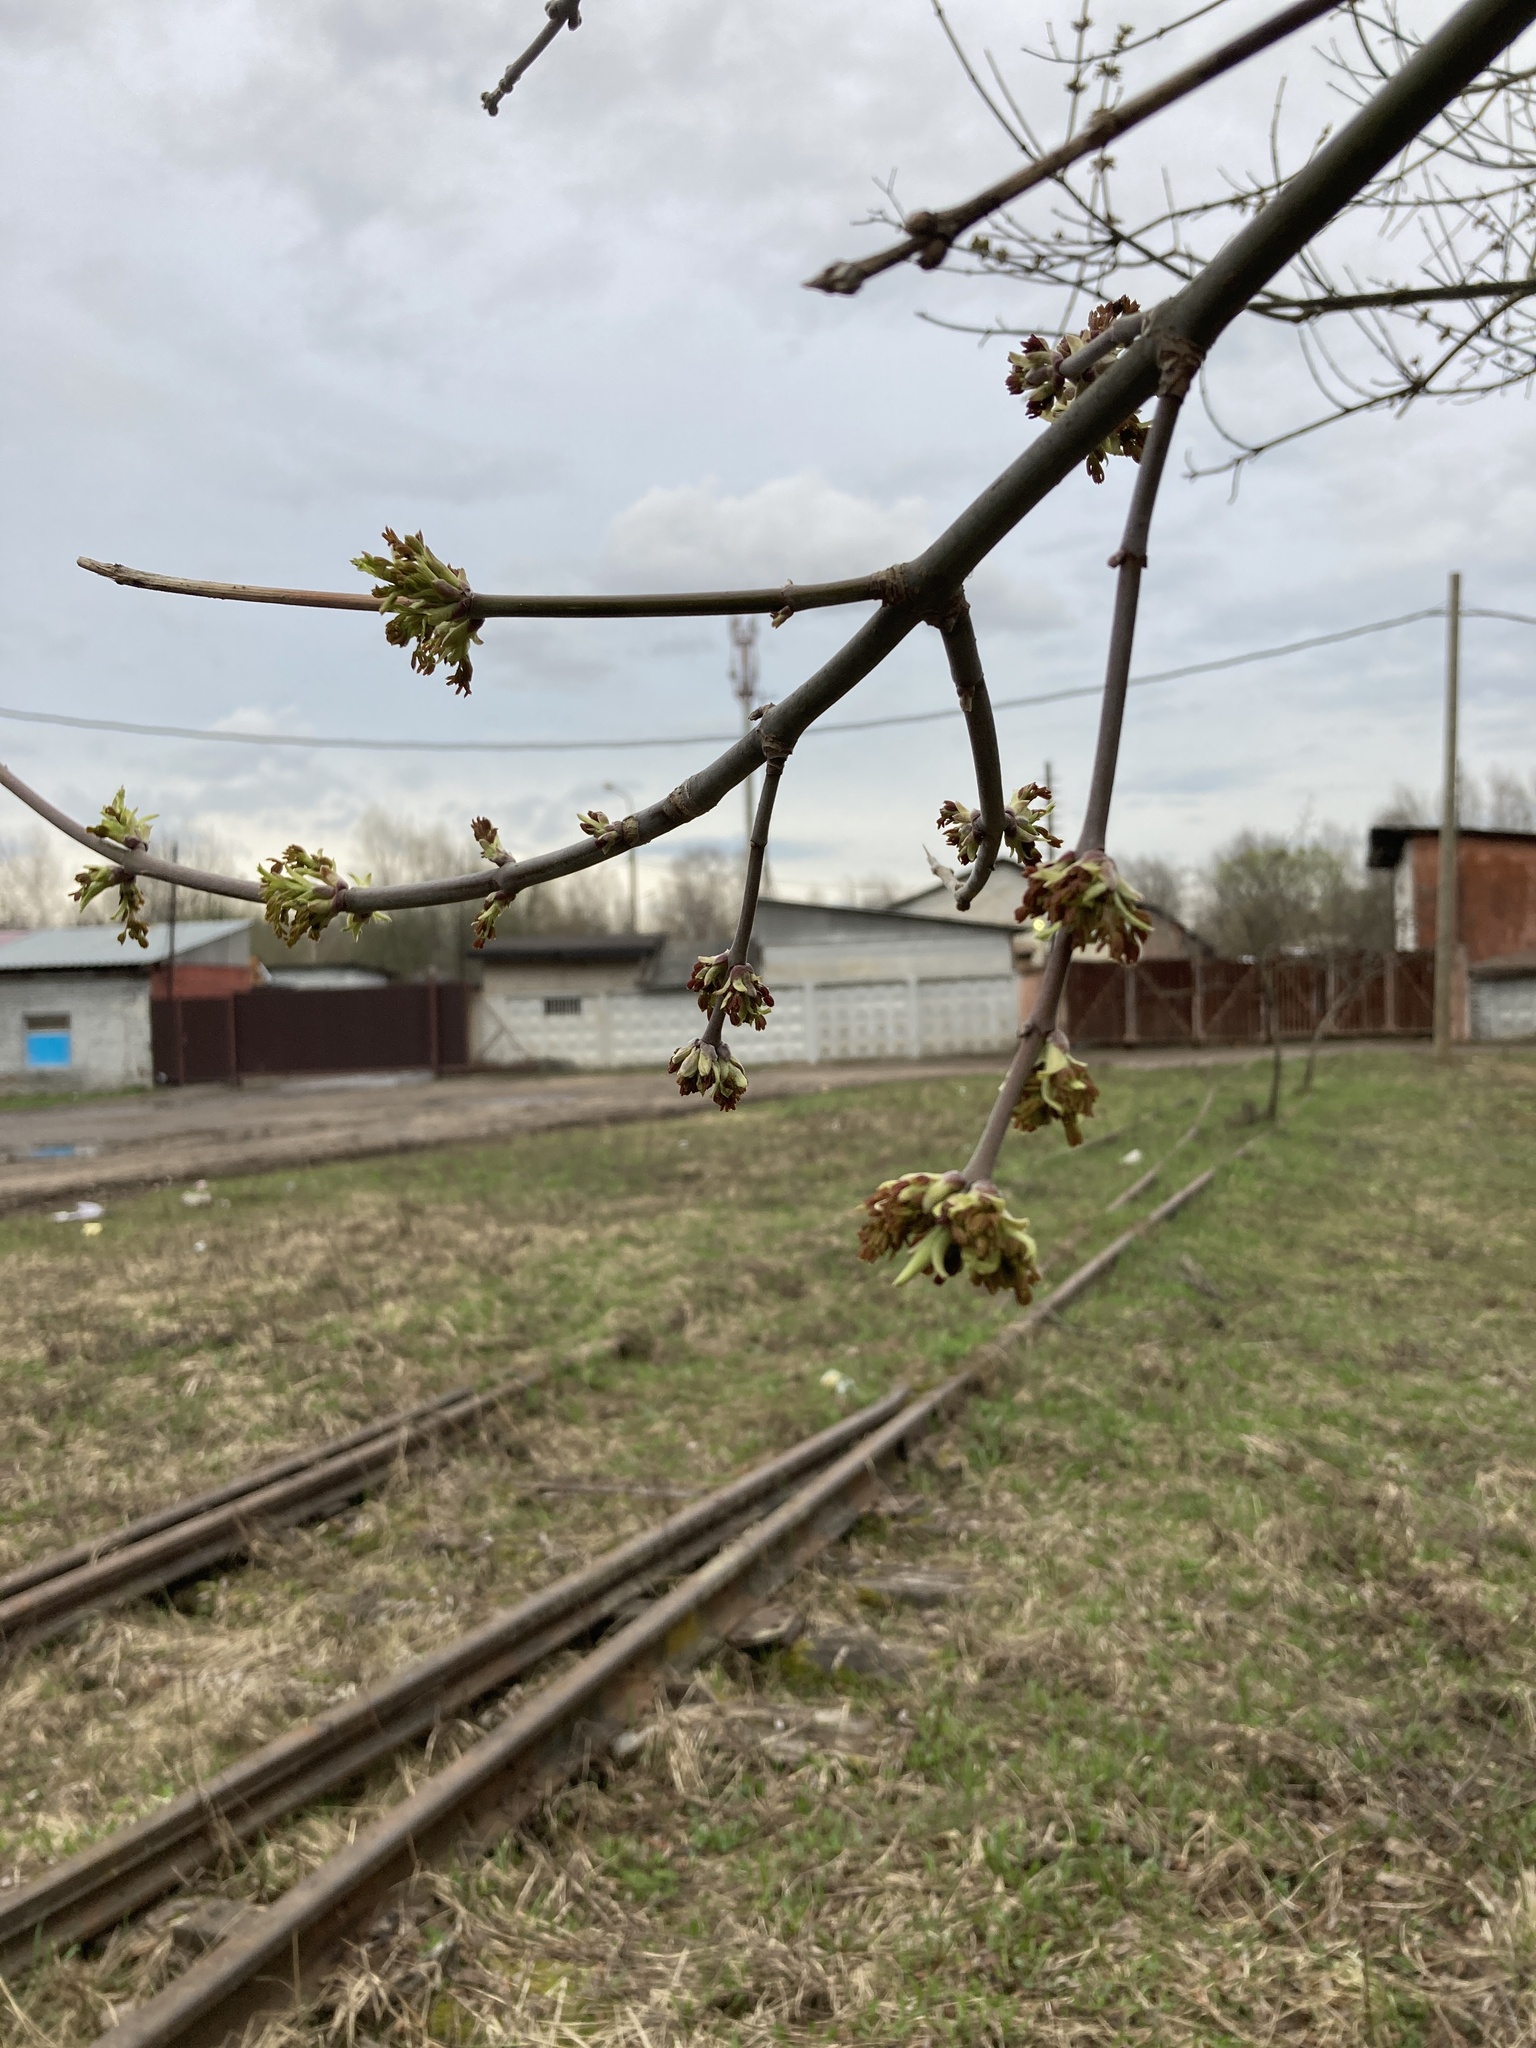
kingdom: Plantae
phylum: Tracheophyta
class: Magnoliopsida
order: Sapindales
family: Sapindaceae
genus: Acer
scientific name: Acer negundo
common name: Ashleaf maple
